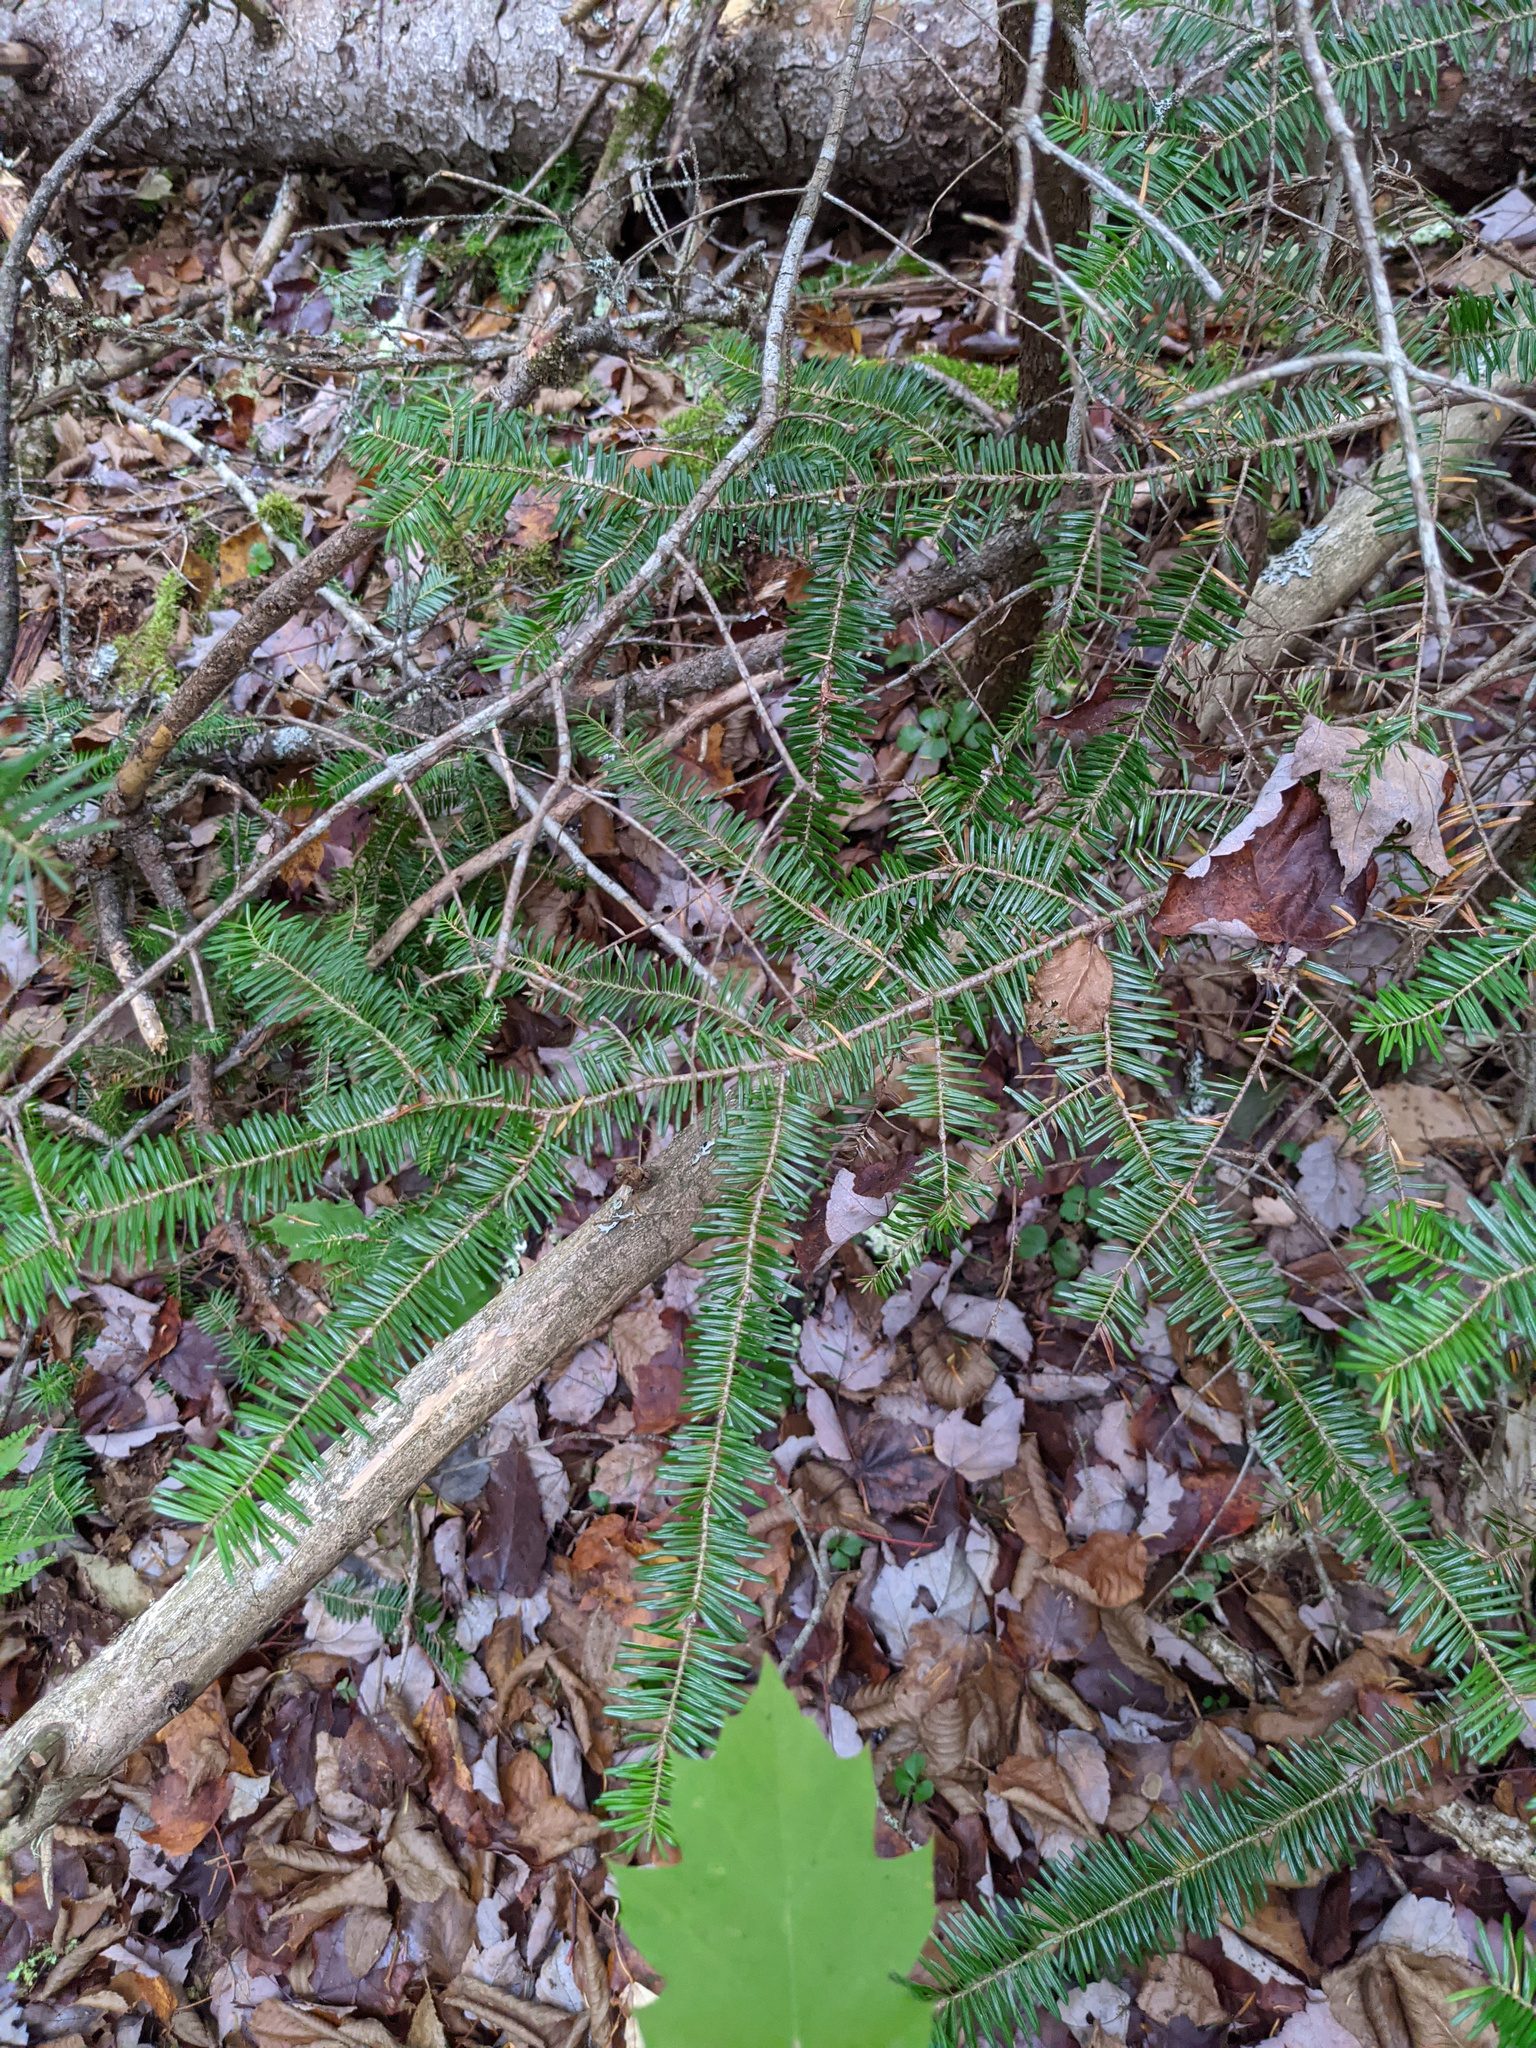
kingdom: Plantae
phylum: Tracheophyta
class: Pinopsida
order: Pinales
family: Pinaceae
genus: Abies
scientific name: Abies balsamea
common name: Balsam fir
